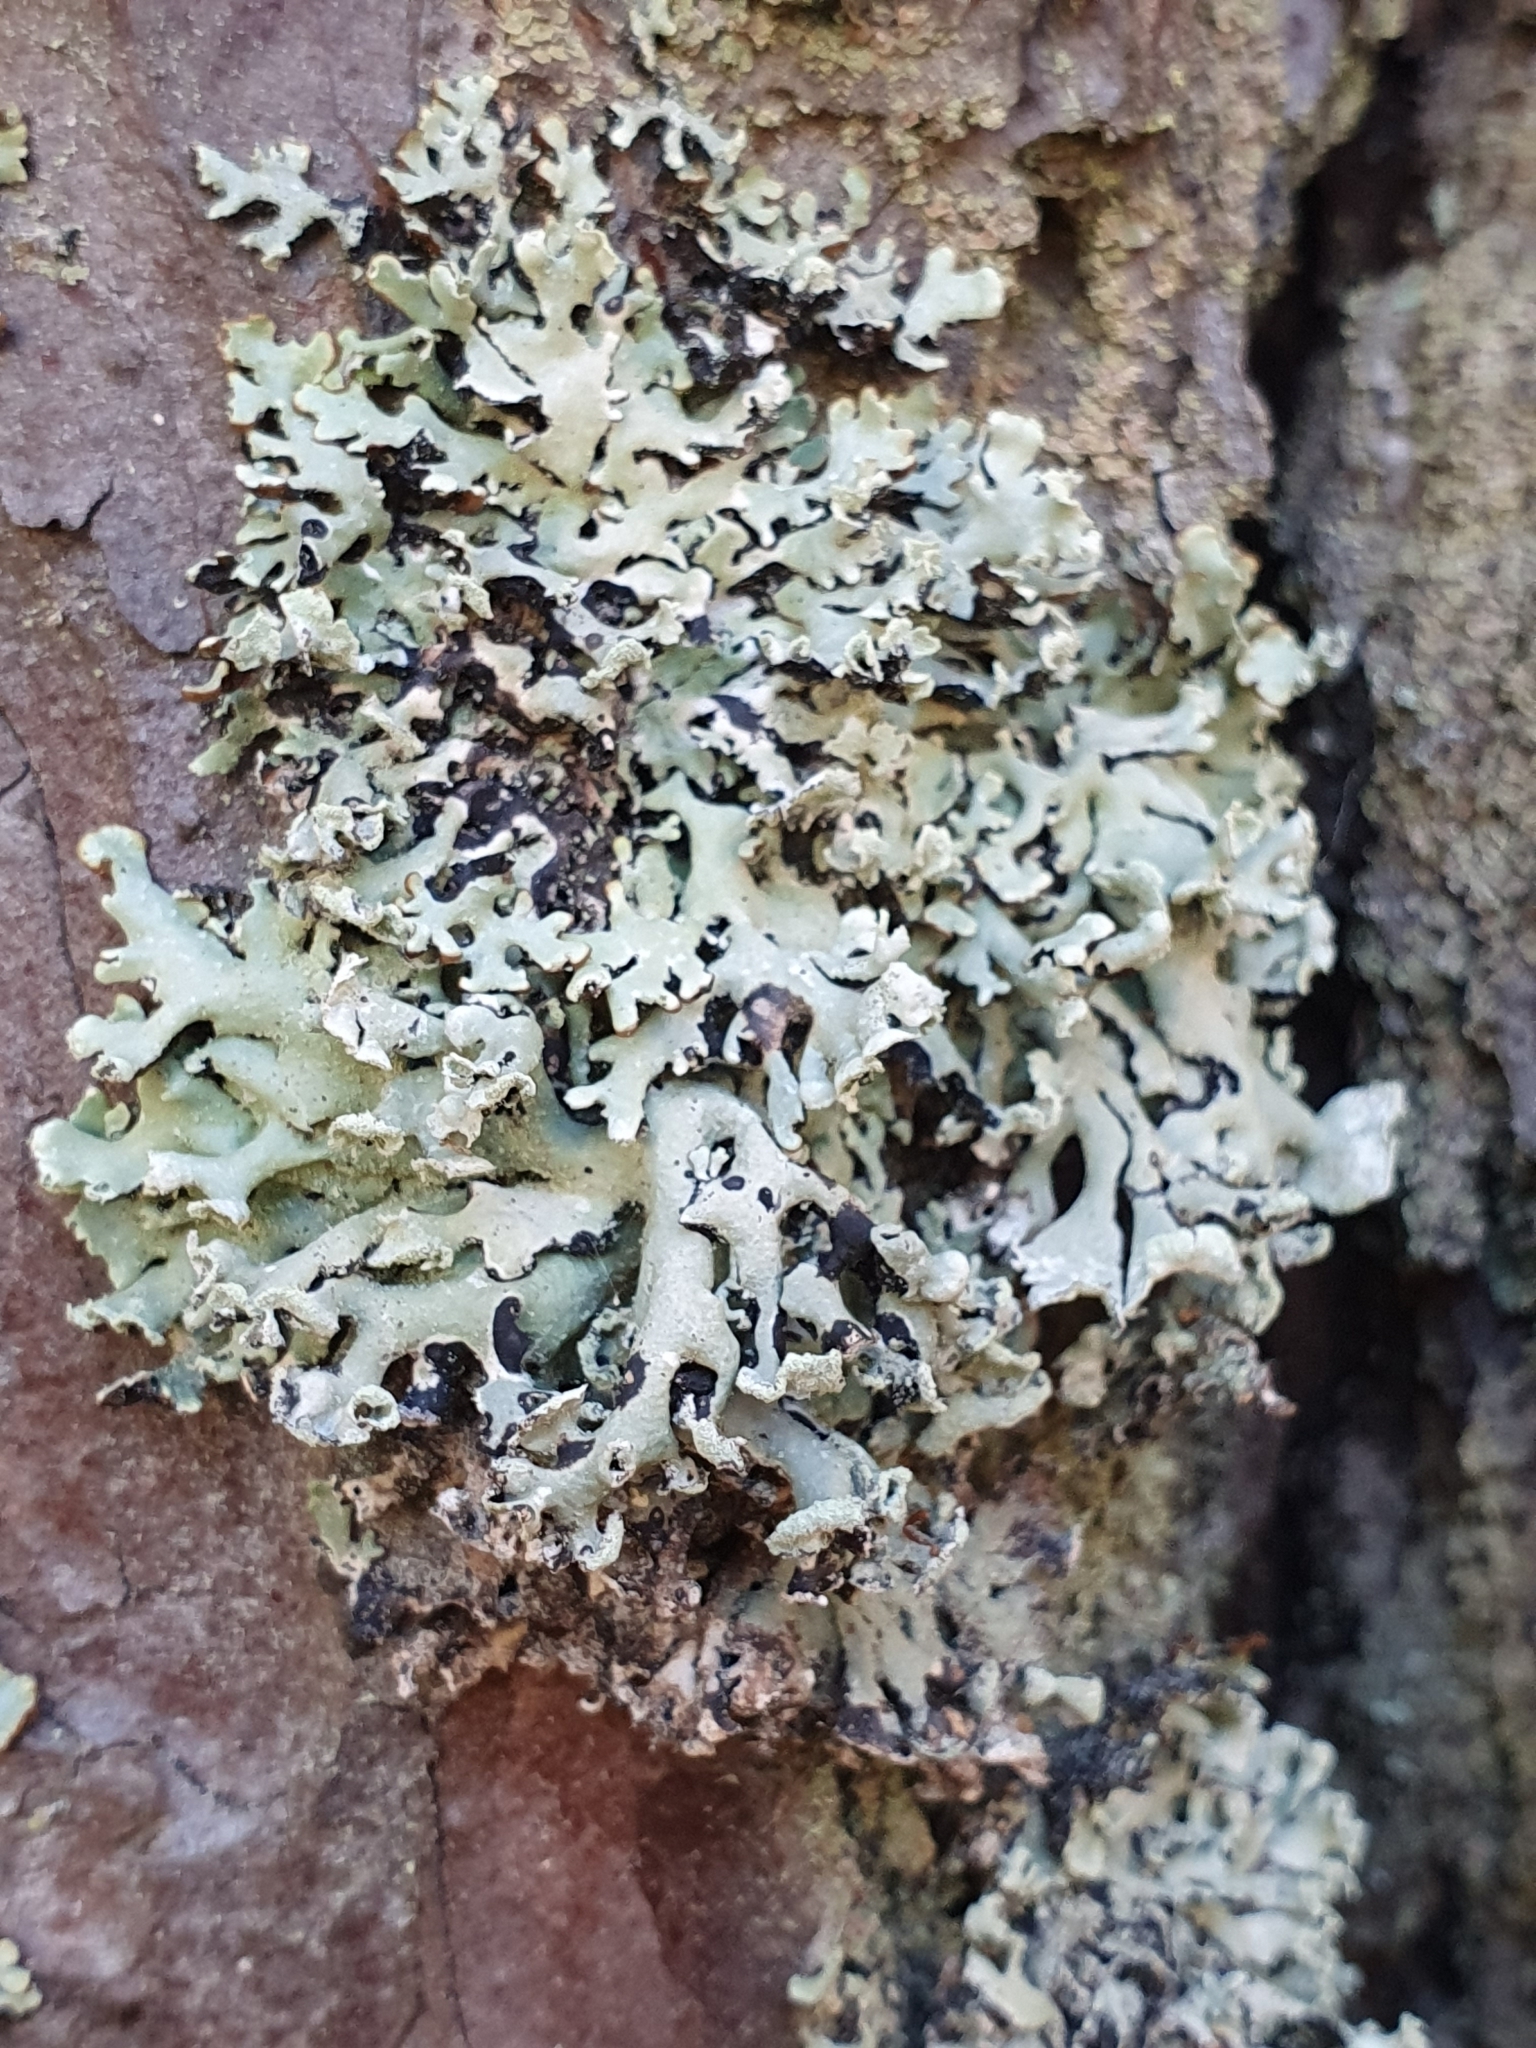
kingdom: Fungi
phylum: Ascomycota
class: Lecanoromycetes
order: Lecanorales
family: Parmeliaceae
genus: Hypogymnia
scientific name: Hypogymnia physodes
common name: Dark crottle
